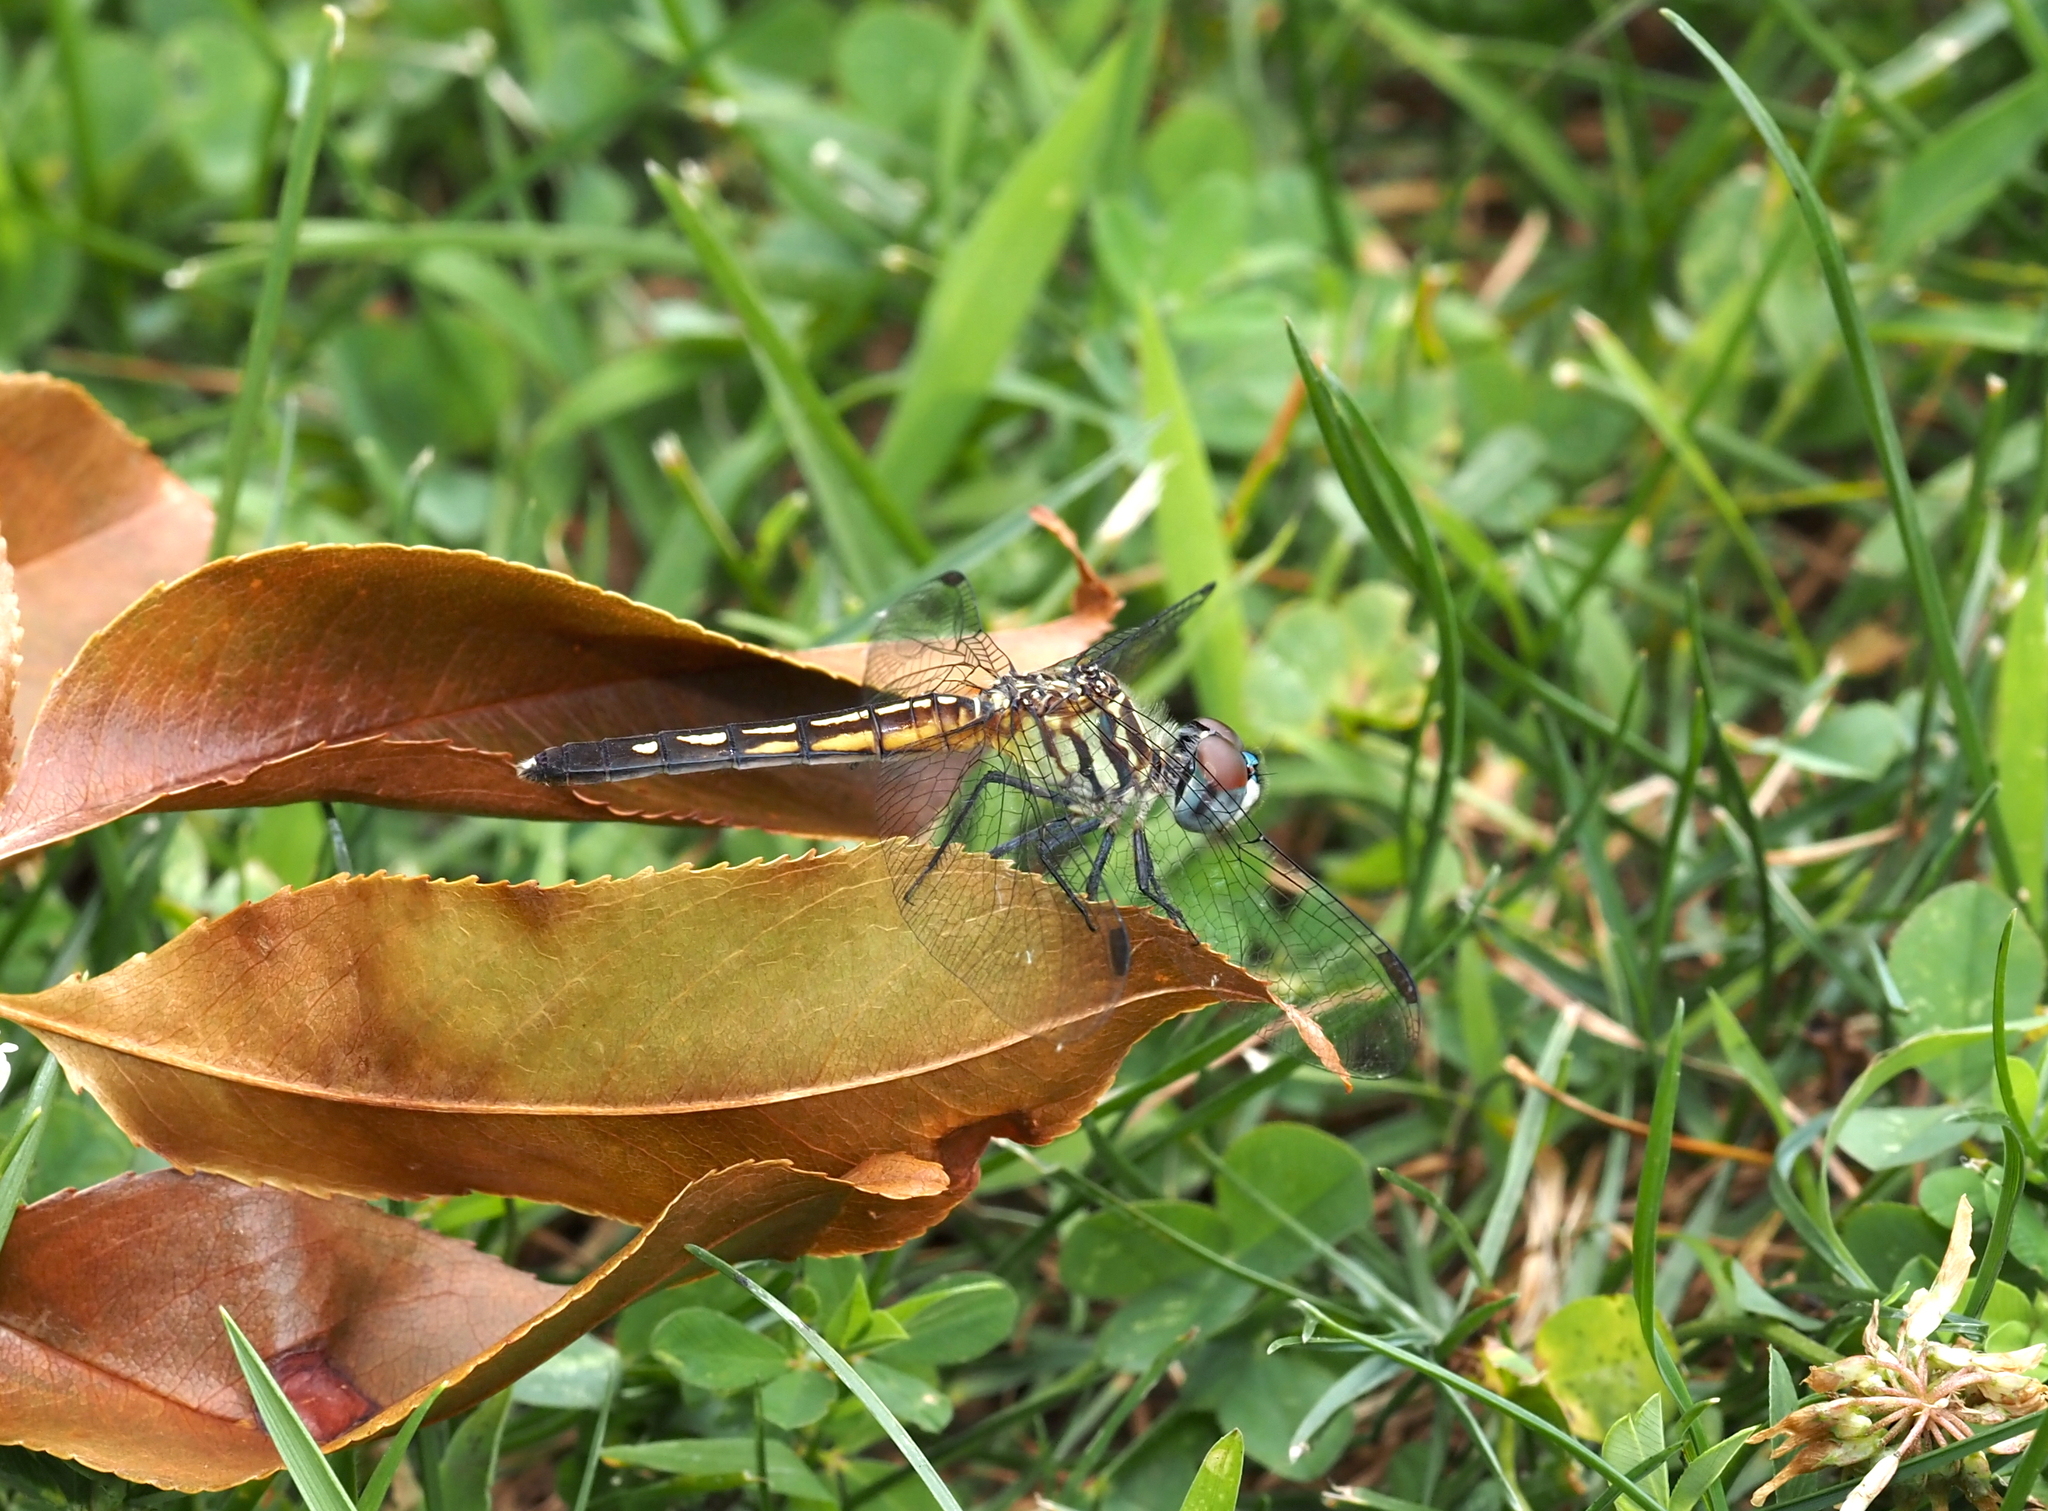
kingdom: Animalia
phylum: Arthropoda
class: Insecta
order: Odonata
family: Libellulidae
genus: Pachydiplax
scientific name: Pachydiplax longipennis
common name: Blue dasher
